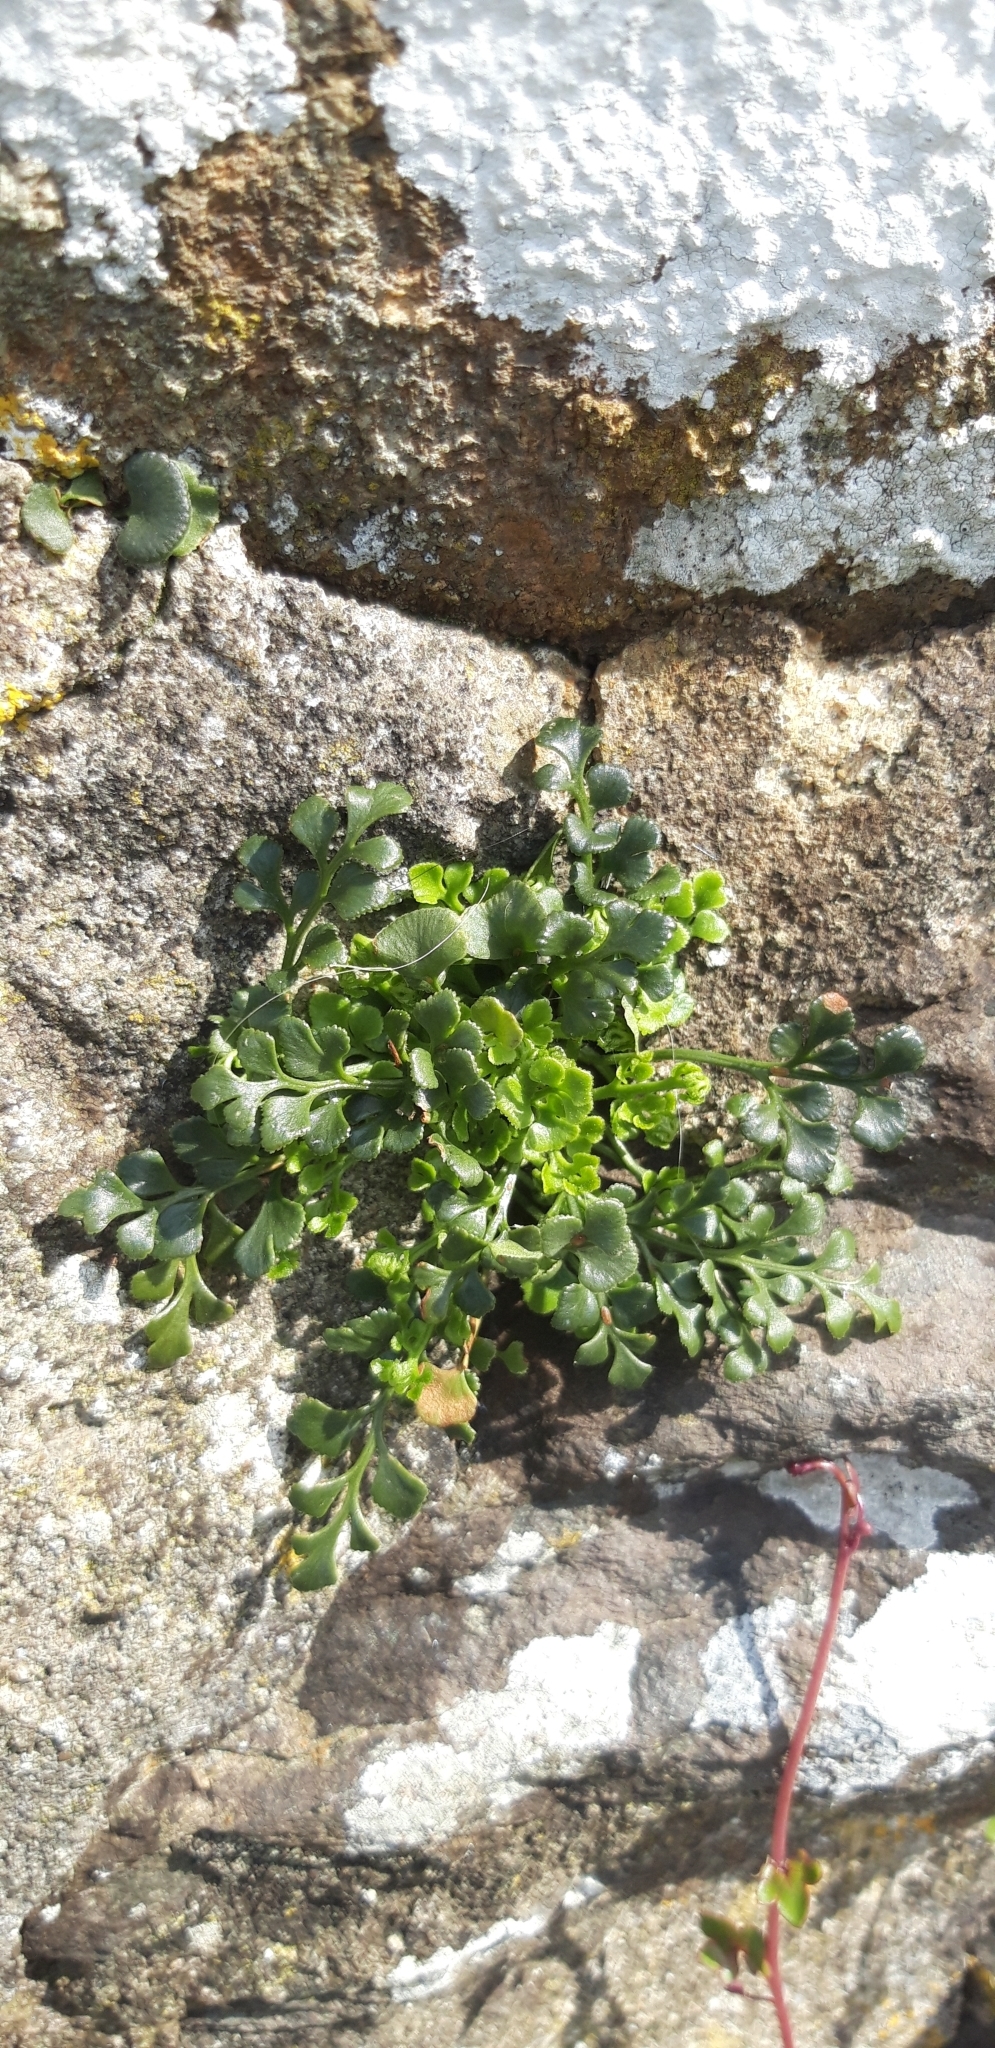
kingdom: Plantae
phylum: Tracheophyta
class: Polypodiopsida
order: Polypodiales
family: Aspleniaceae
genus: Asplenium
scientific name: Asplenium ruta-muraria
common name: Wall-rue
